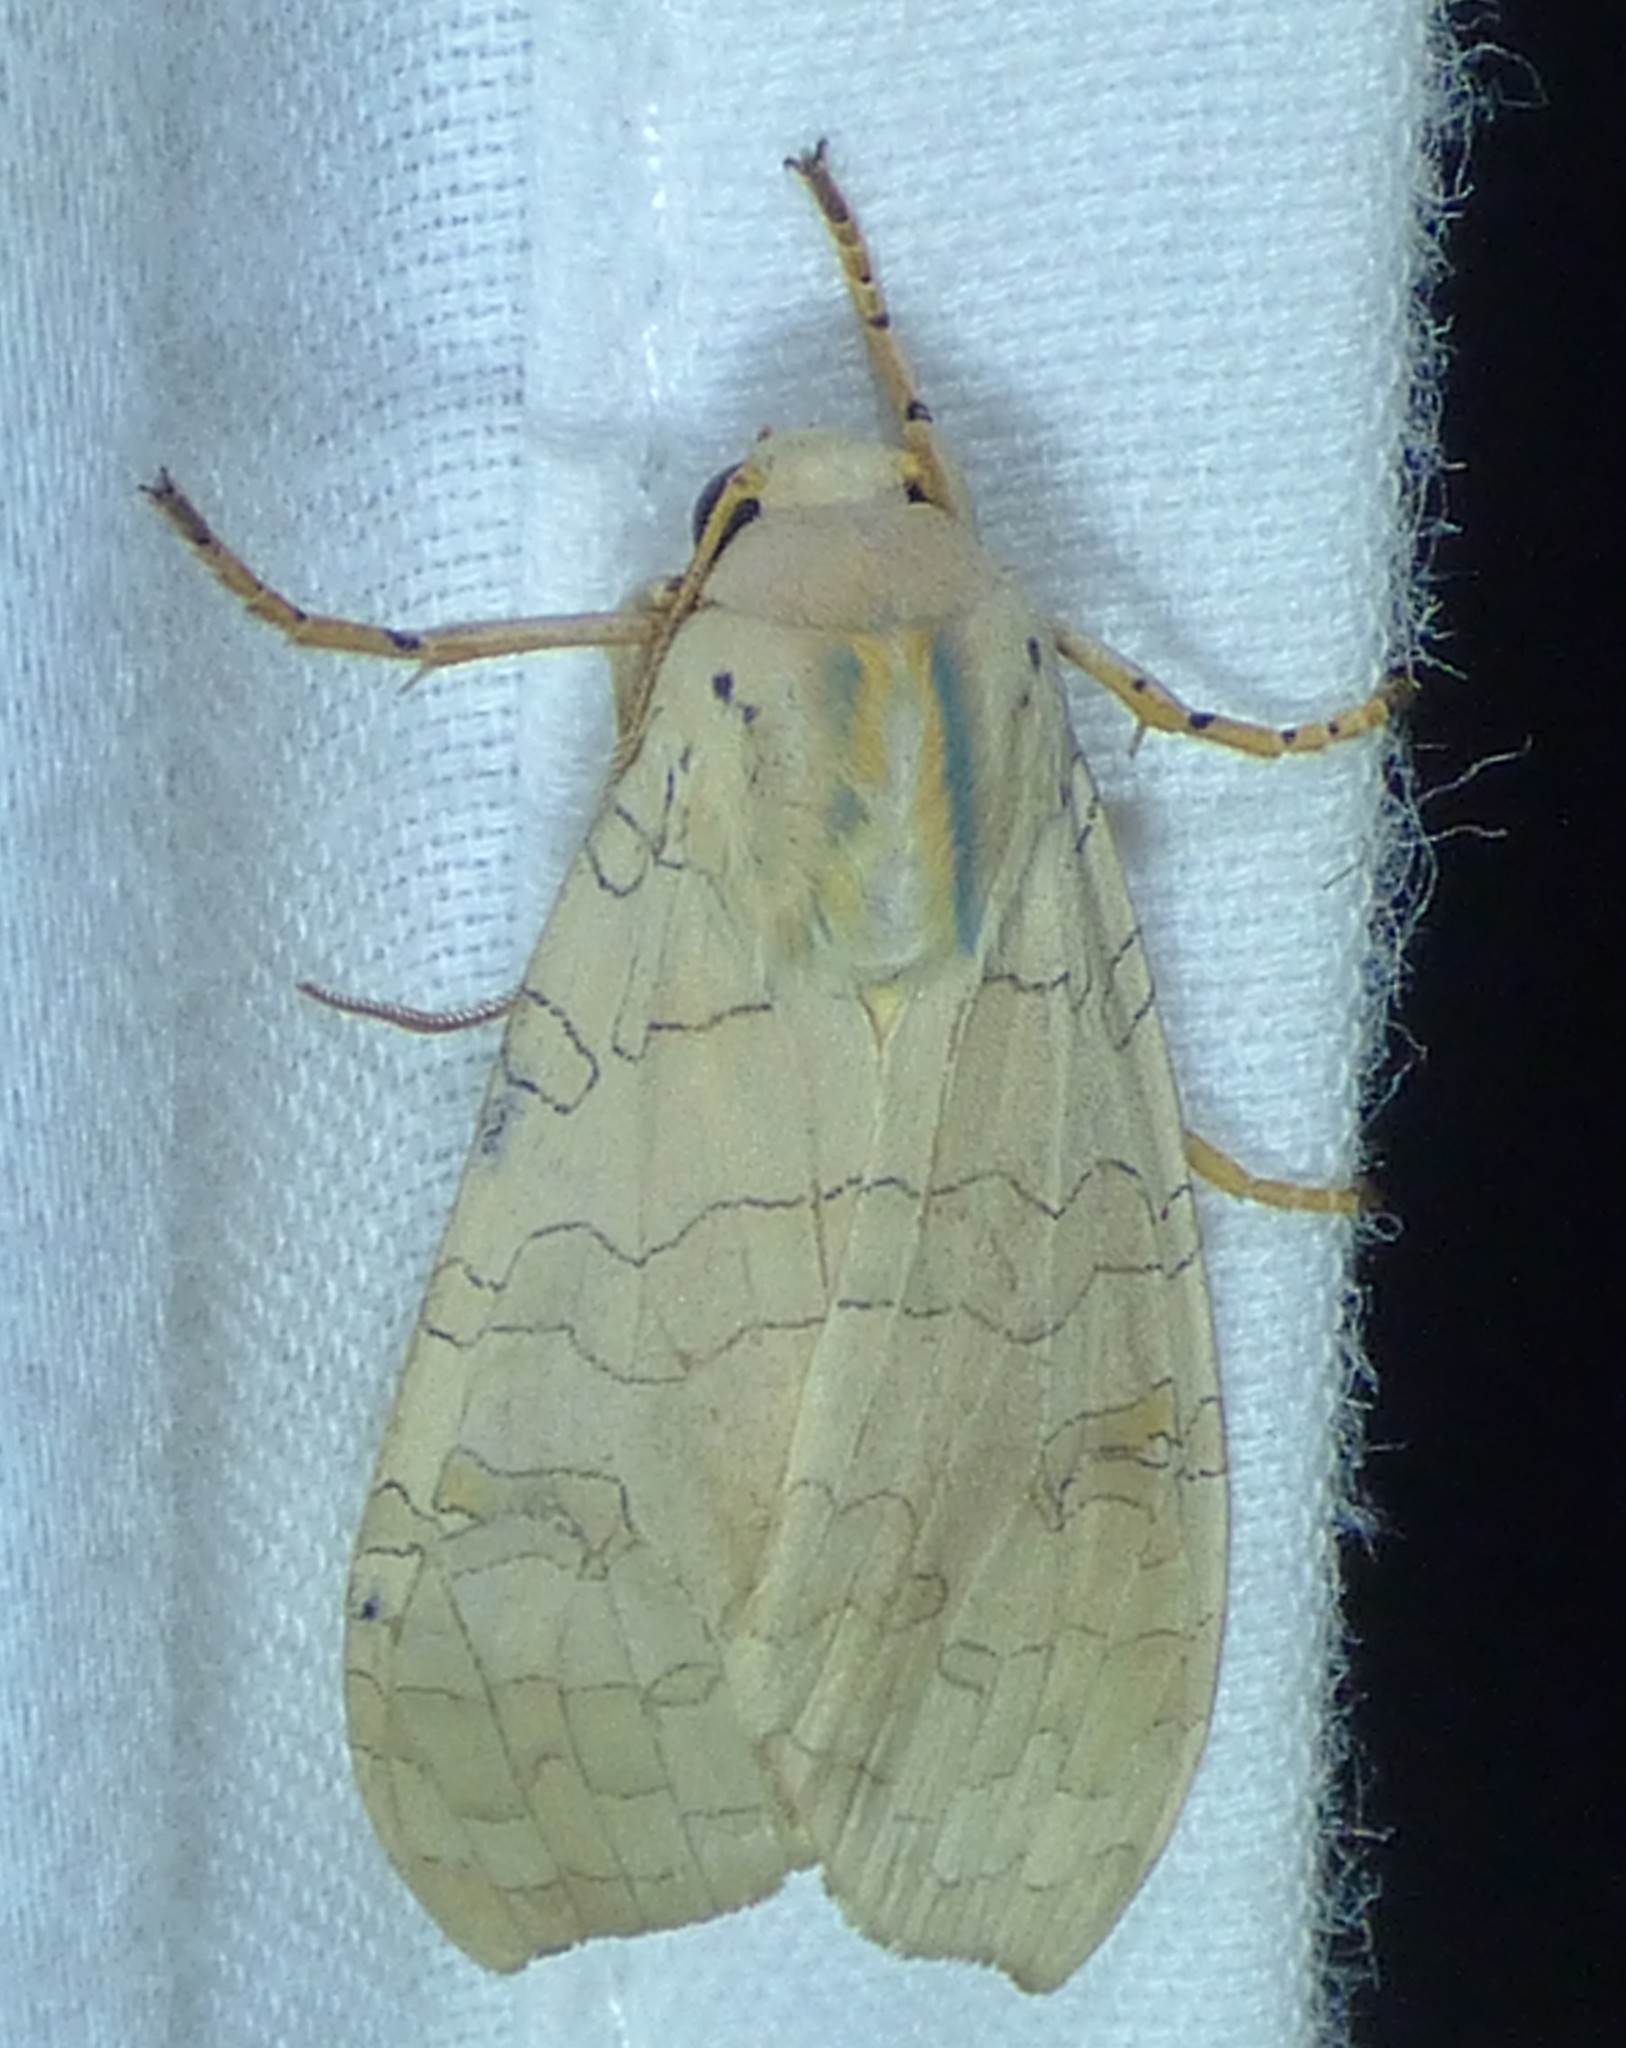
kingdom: Animalia
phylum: Arthropoda
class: Insecta
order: Lepidoptera
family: Erebidae
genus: Halysidota
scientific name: Halysidota
